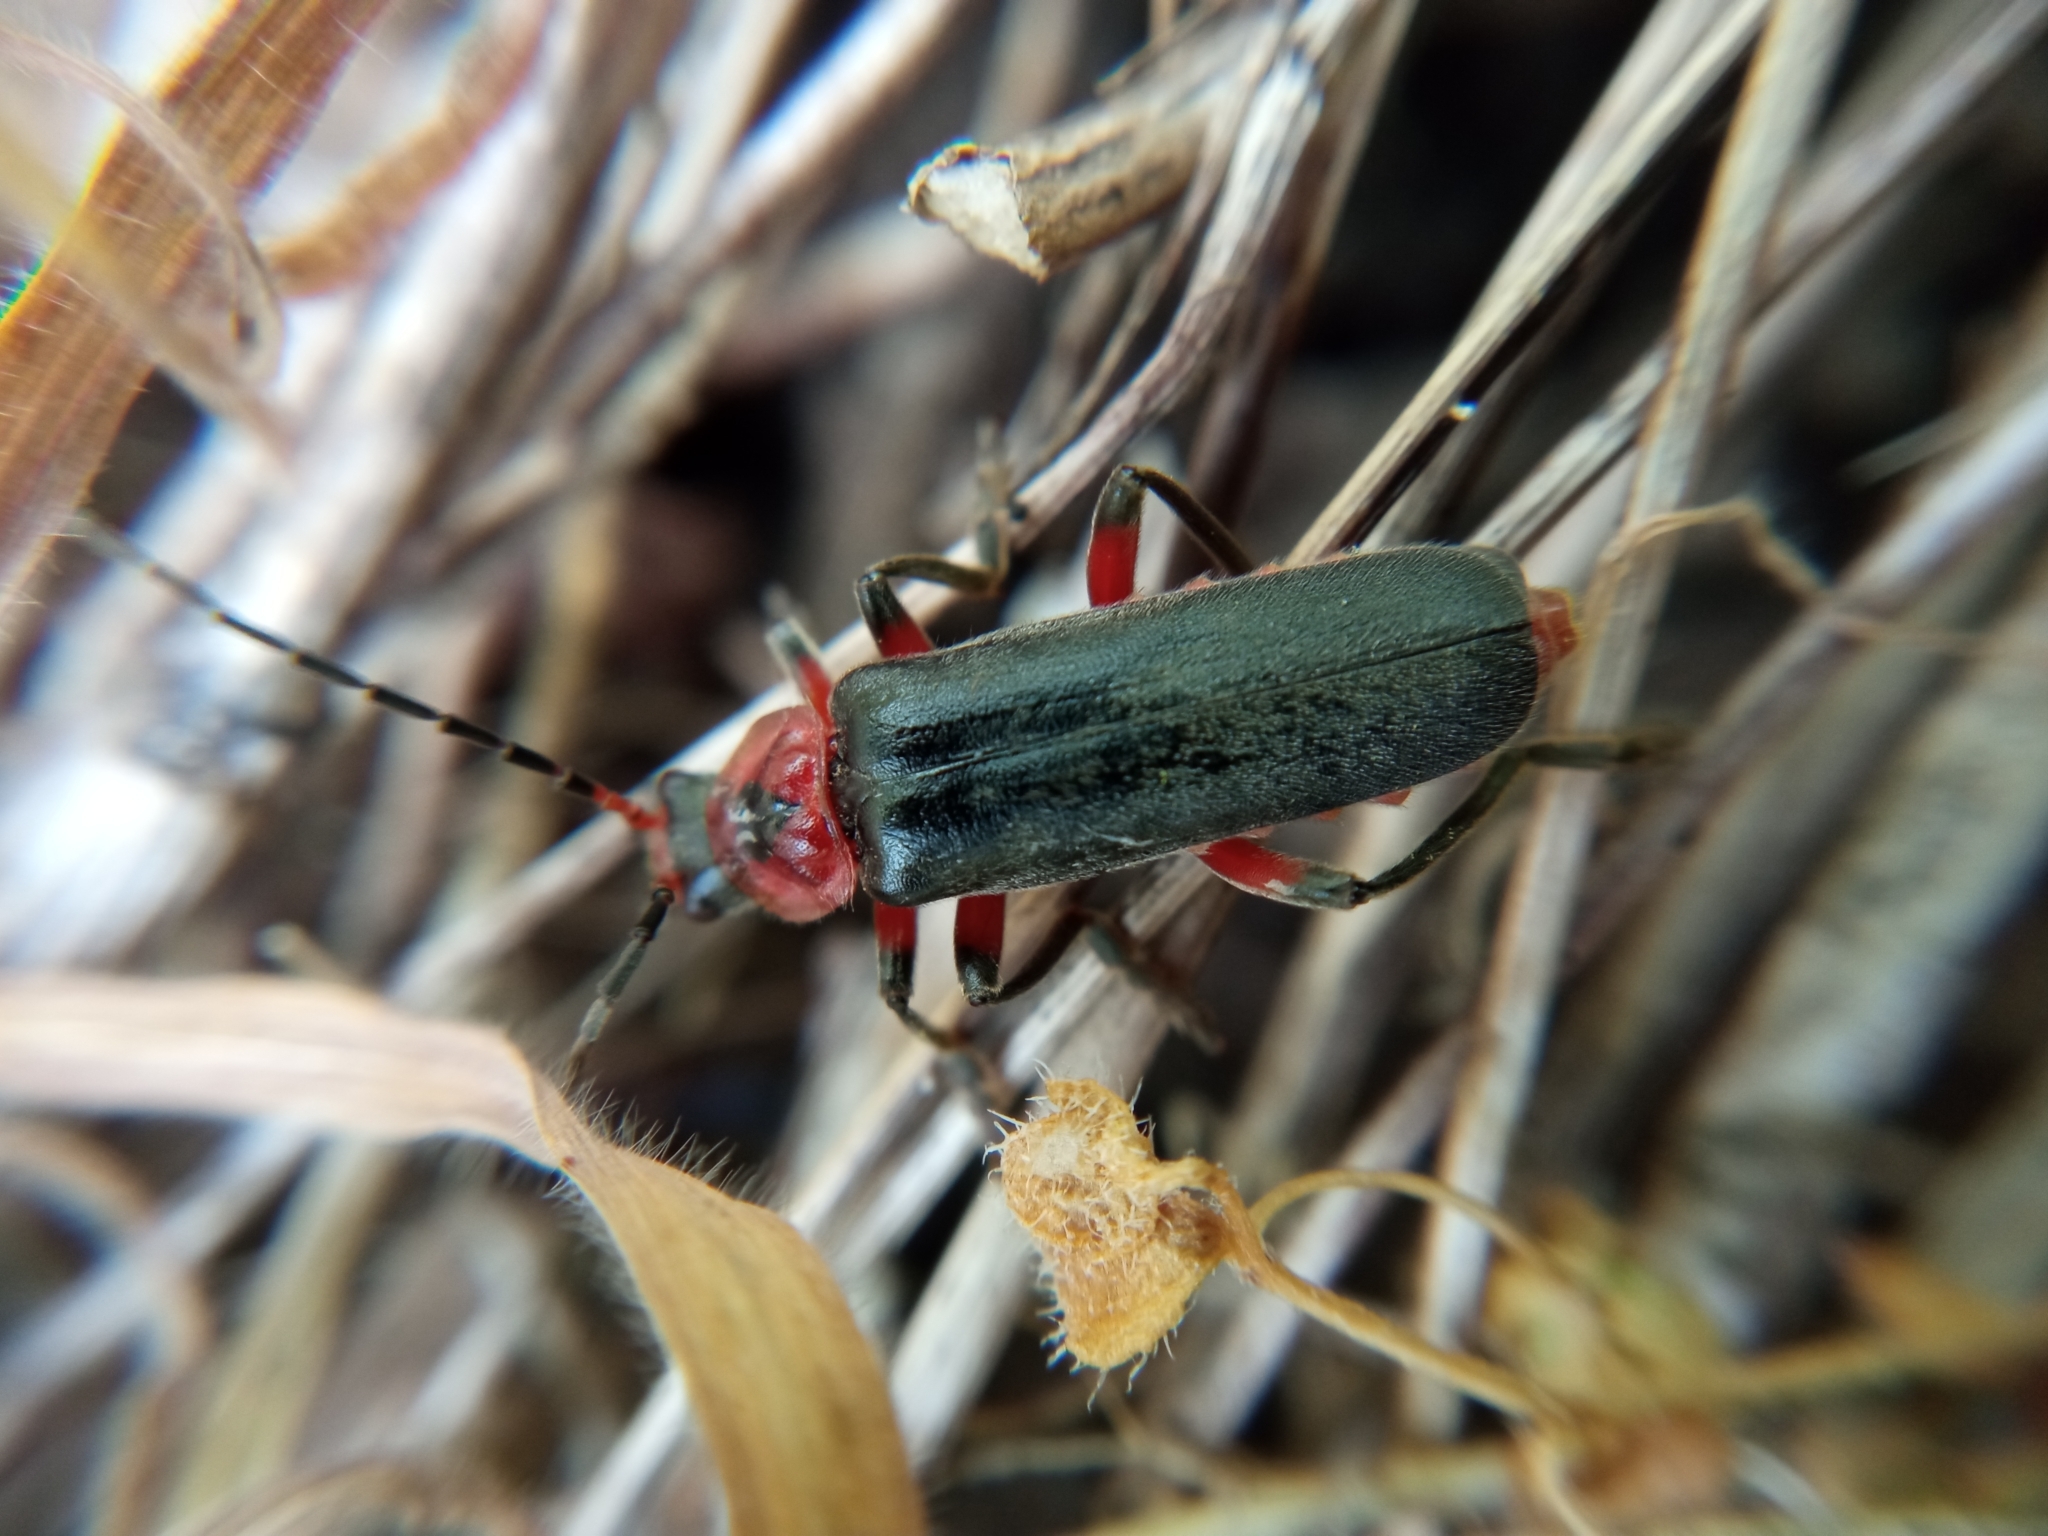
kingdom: Animalia
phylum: Arthropoda
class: Insecta
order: Coleoptera
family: Cantharidae
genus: Cantharis
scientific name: Cantharis rustica
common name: Soldier beetle
